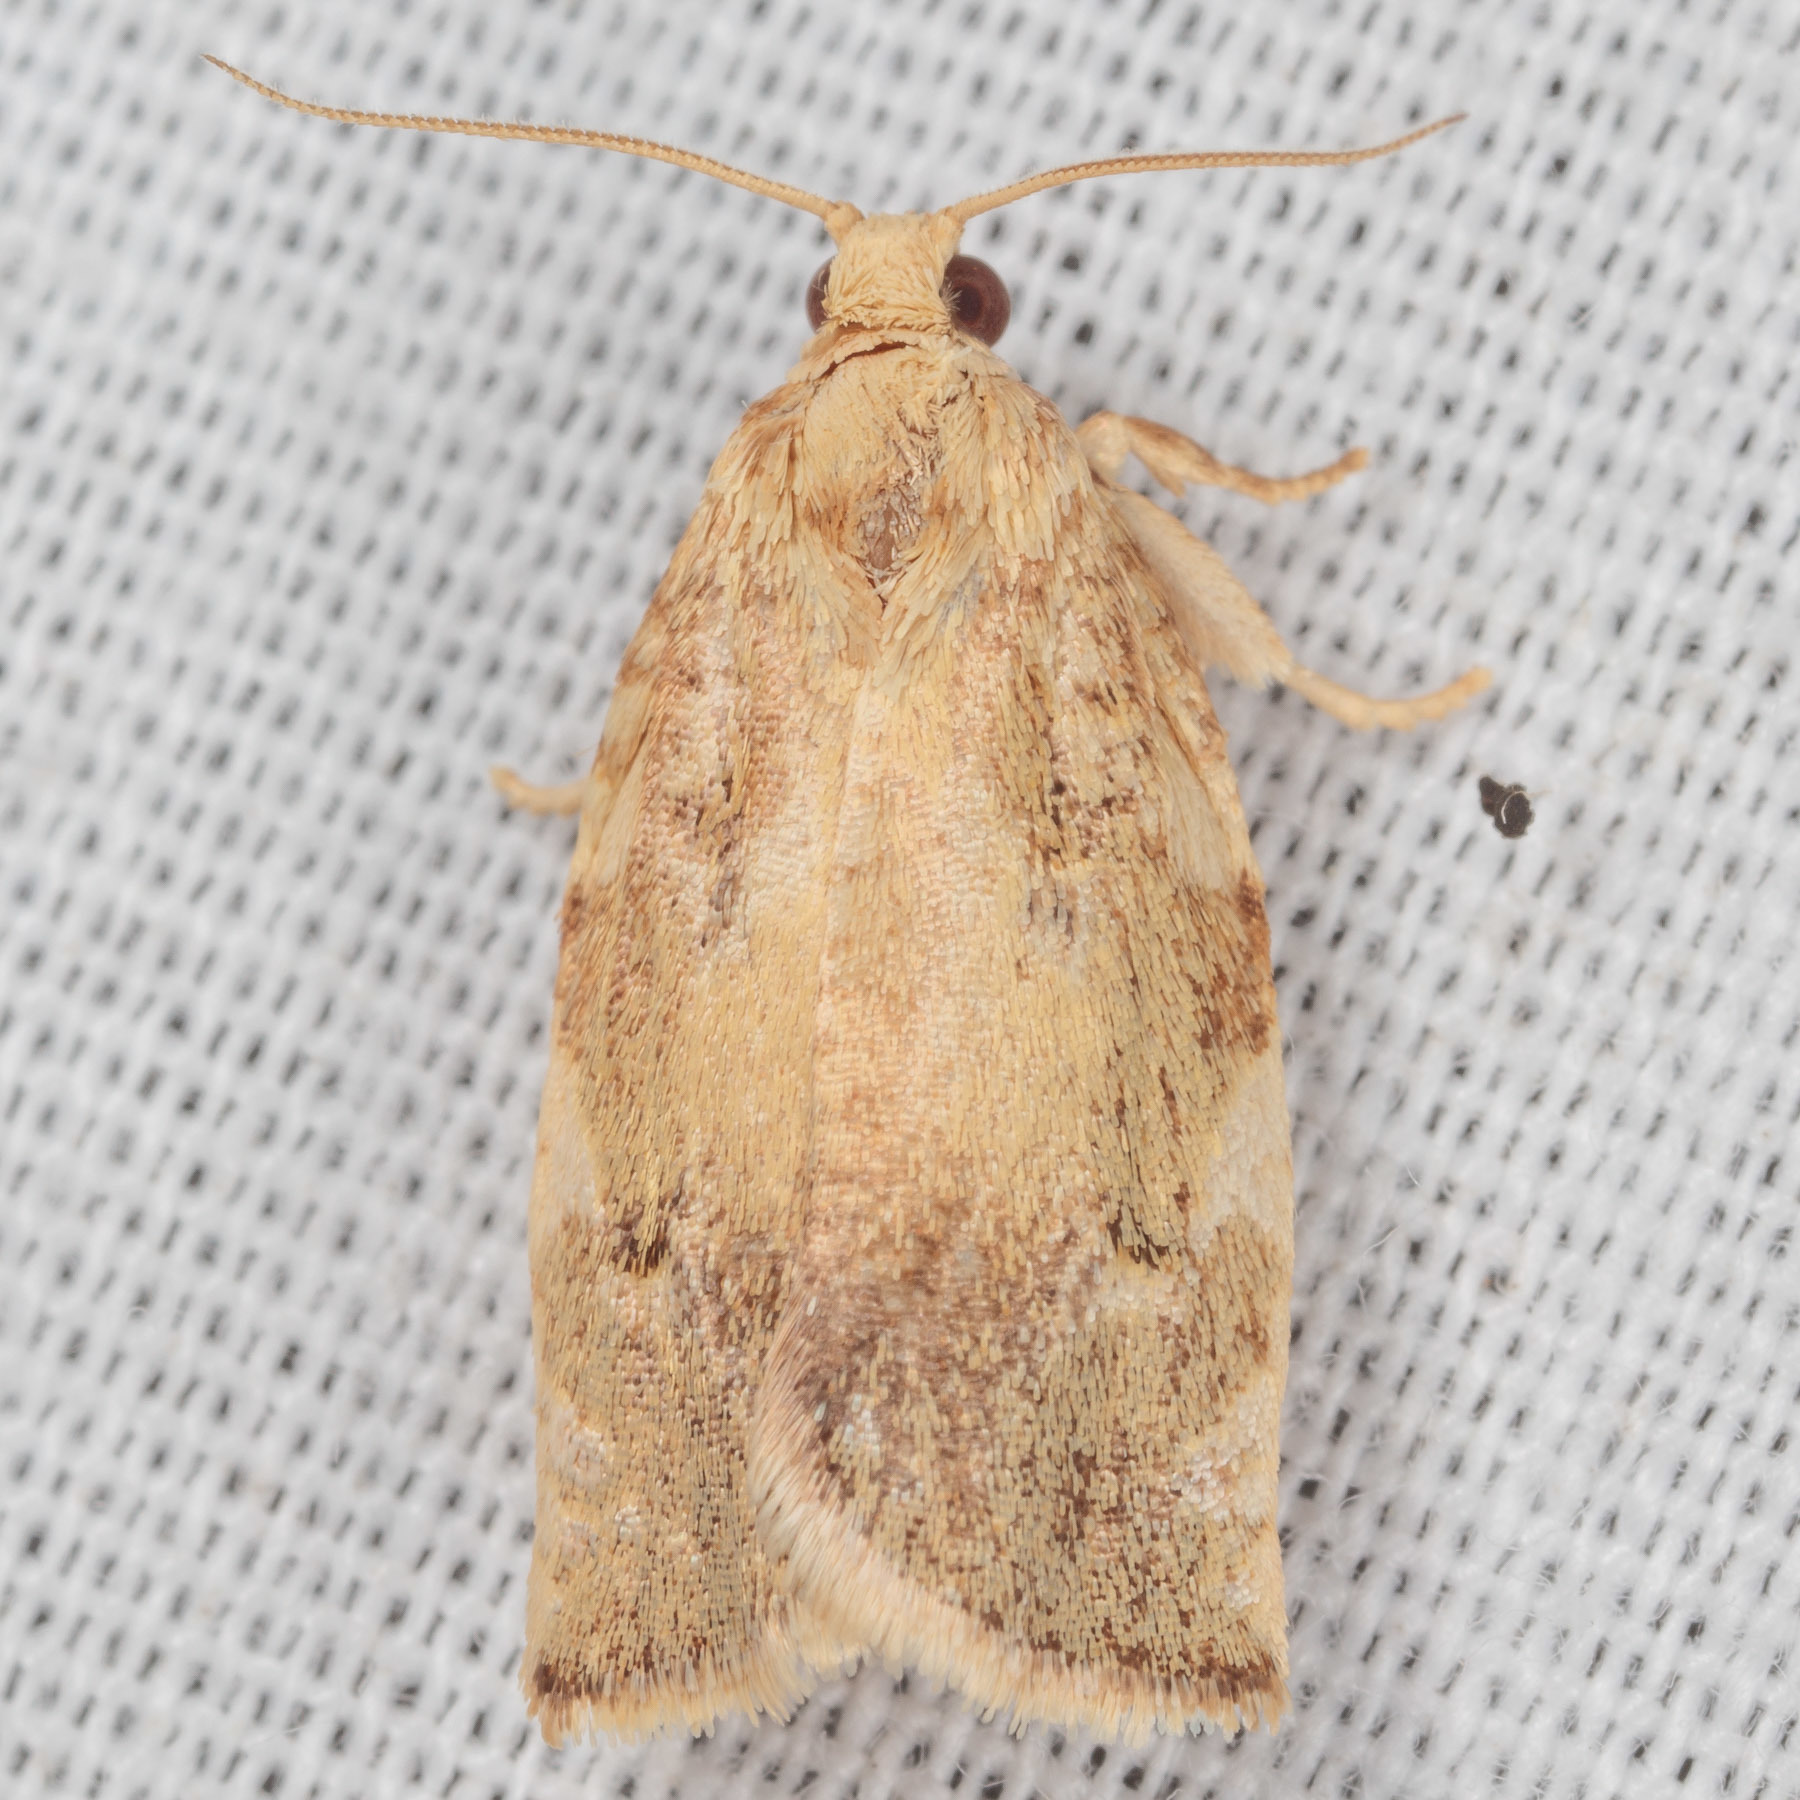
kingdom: Animalia
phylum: Arthropoda
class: Insecta
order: Lepidoptera
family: Tortricidae
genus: Archips
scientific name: Archips semiferanus
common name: Oak leafroller
